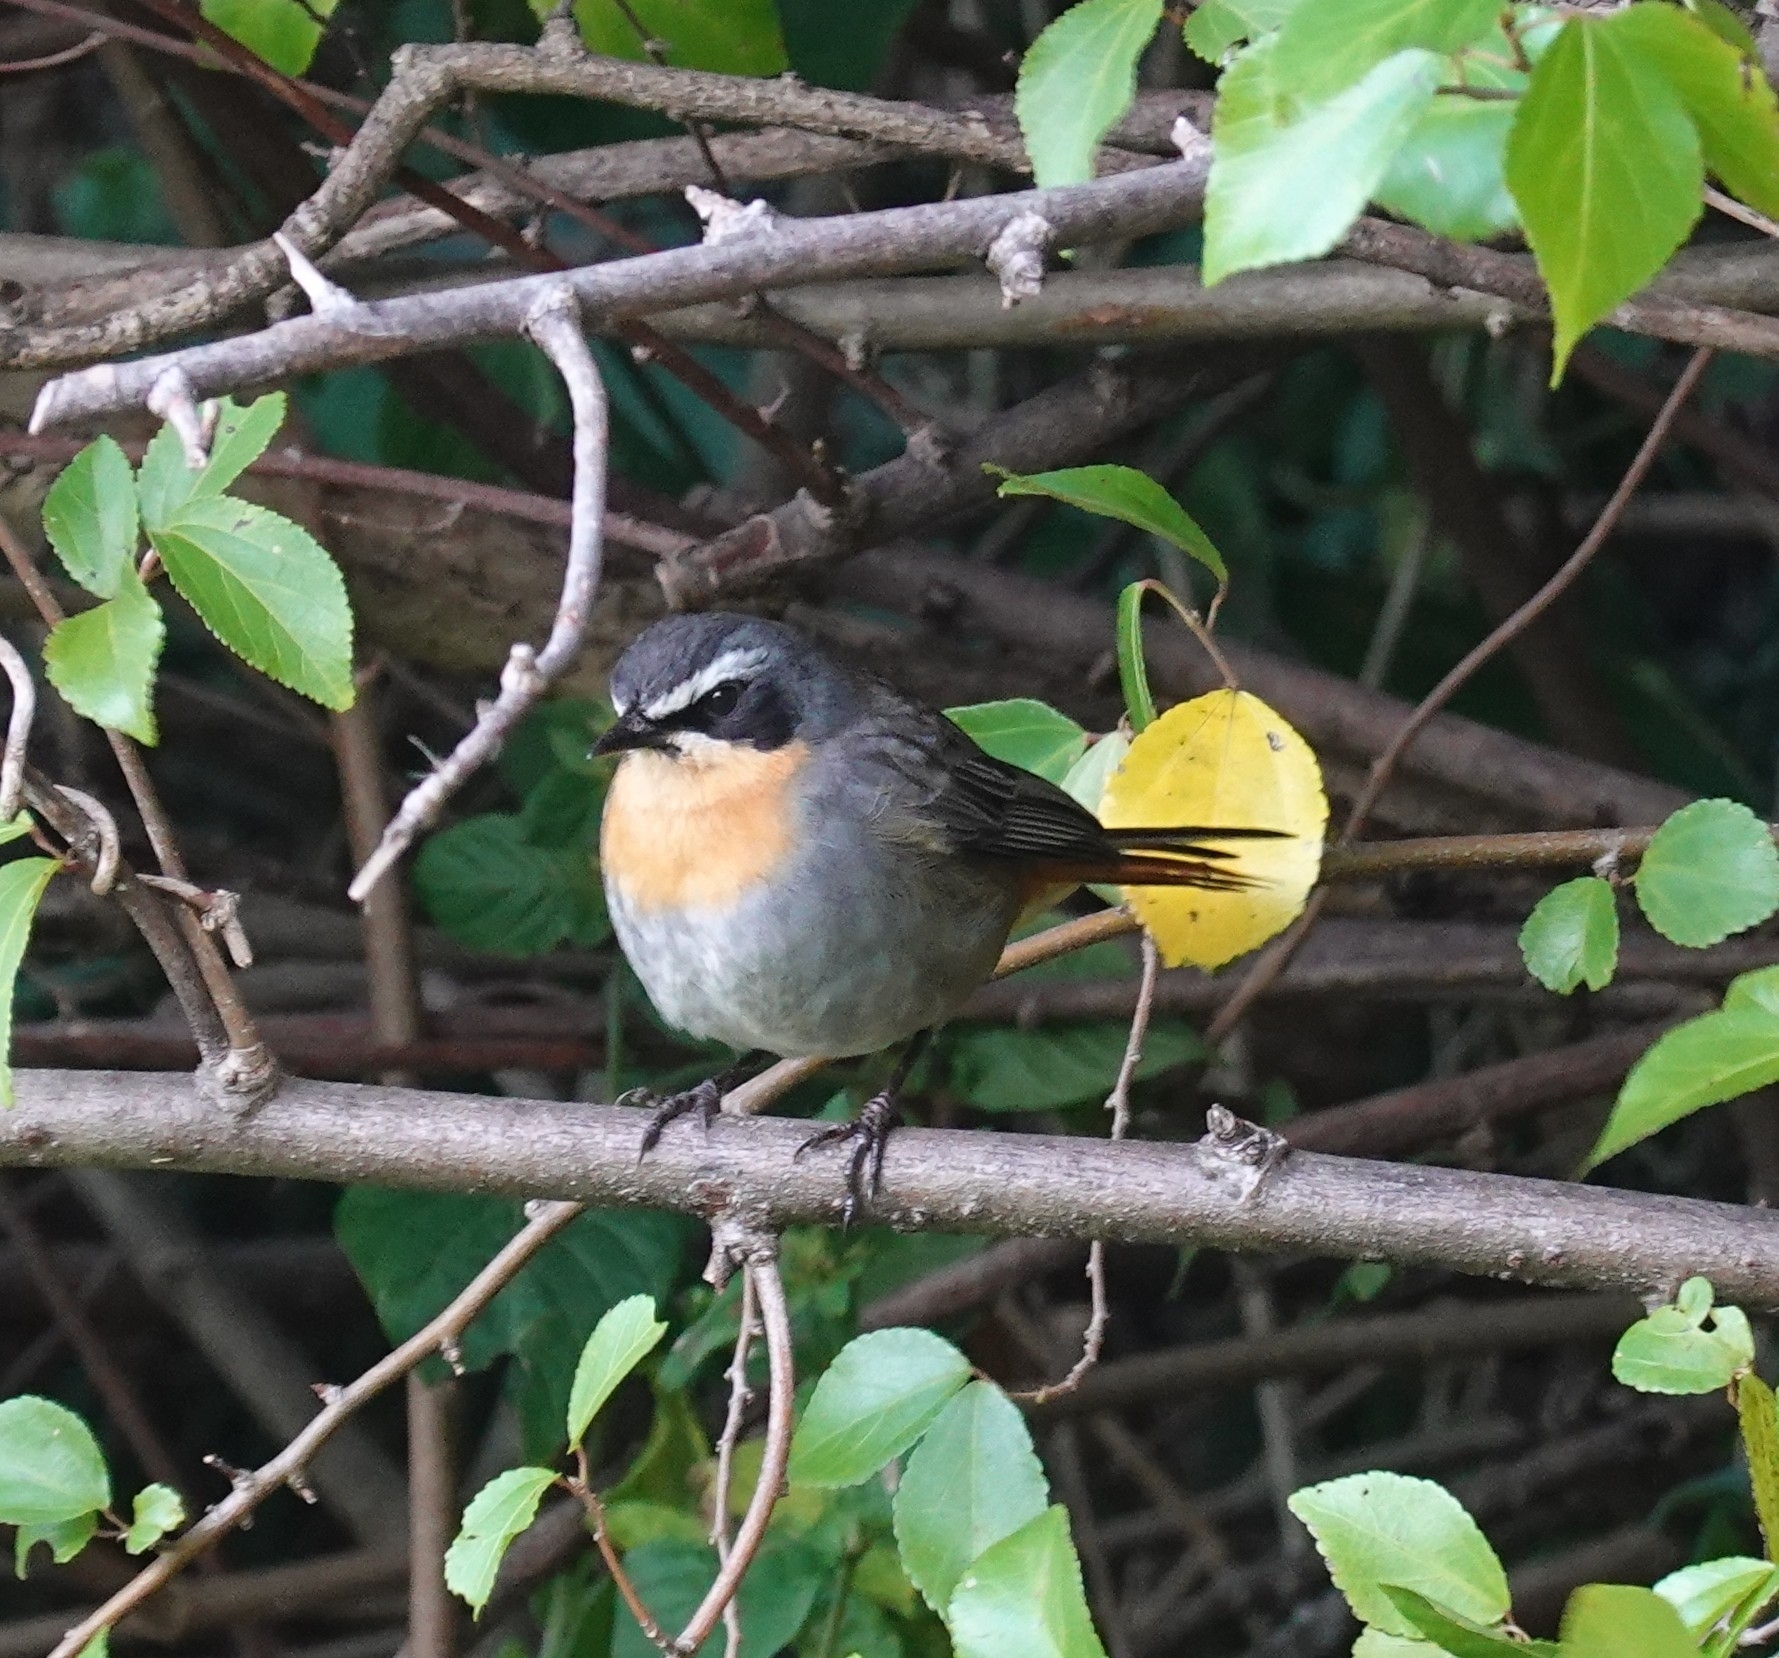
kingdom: Animalia
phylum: Chordata
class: Aves
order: Passeriformes
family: Muscicapidae
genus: Cossypha
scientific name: Cossypha caffra
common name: Cape robin-chat
